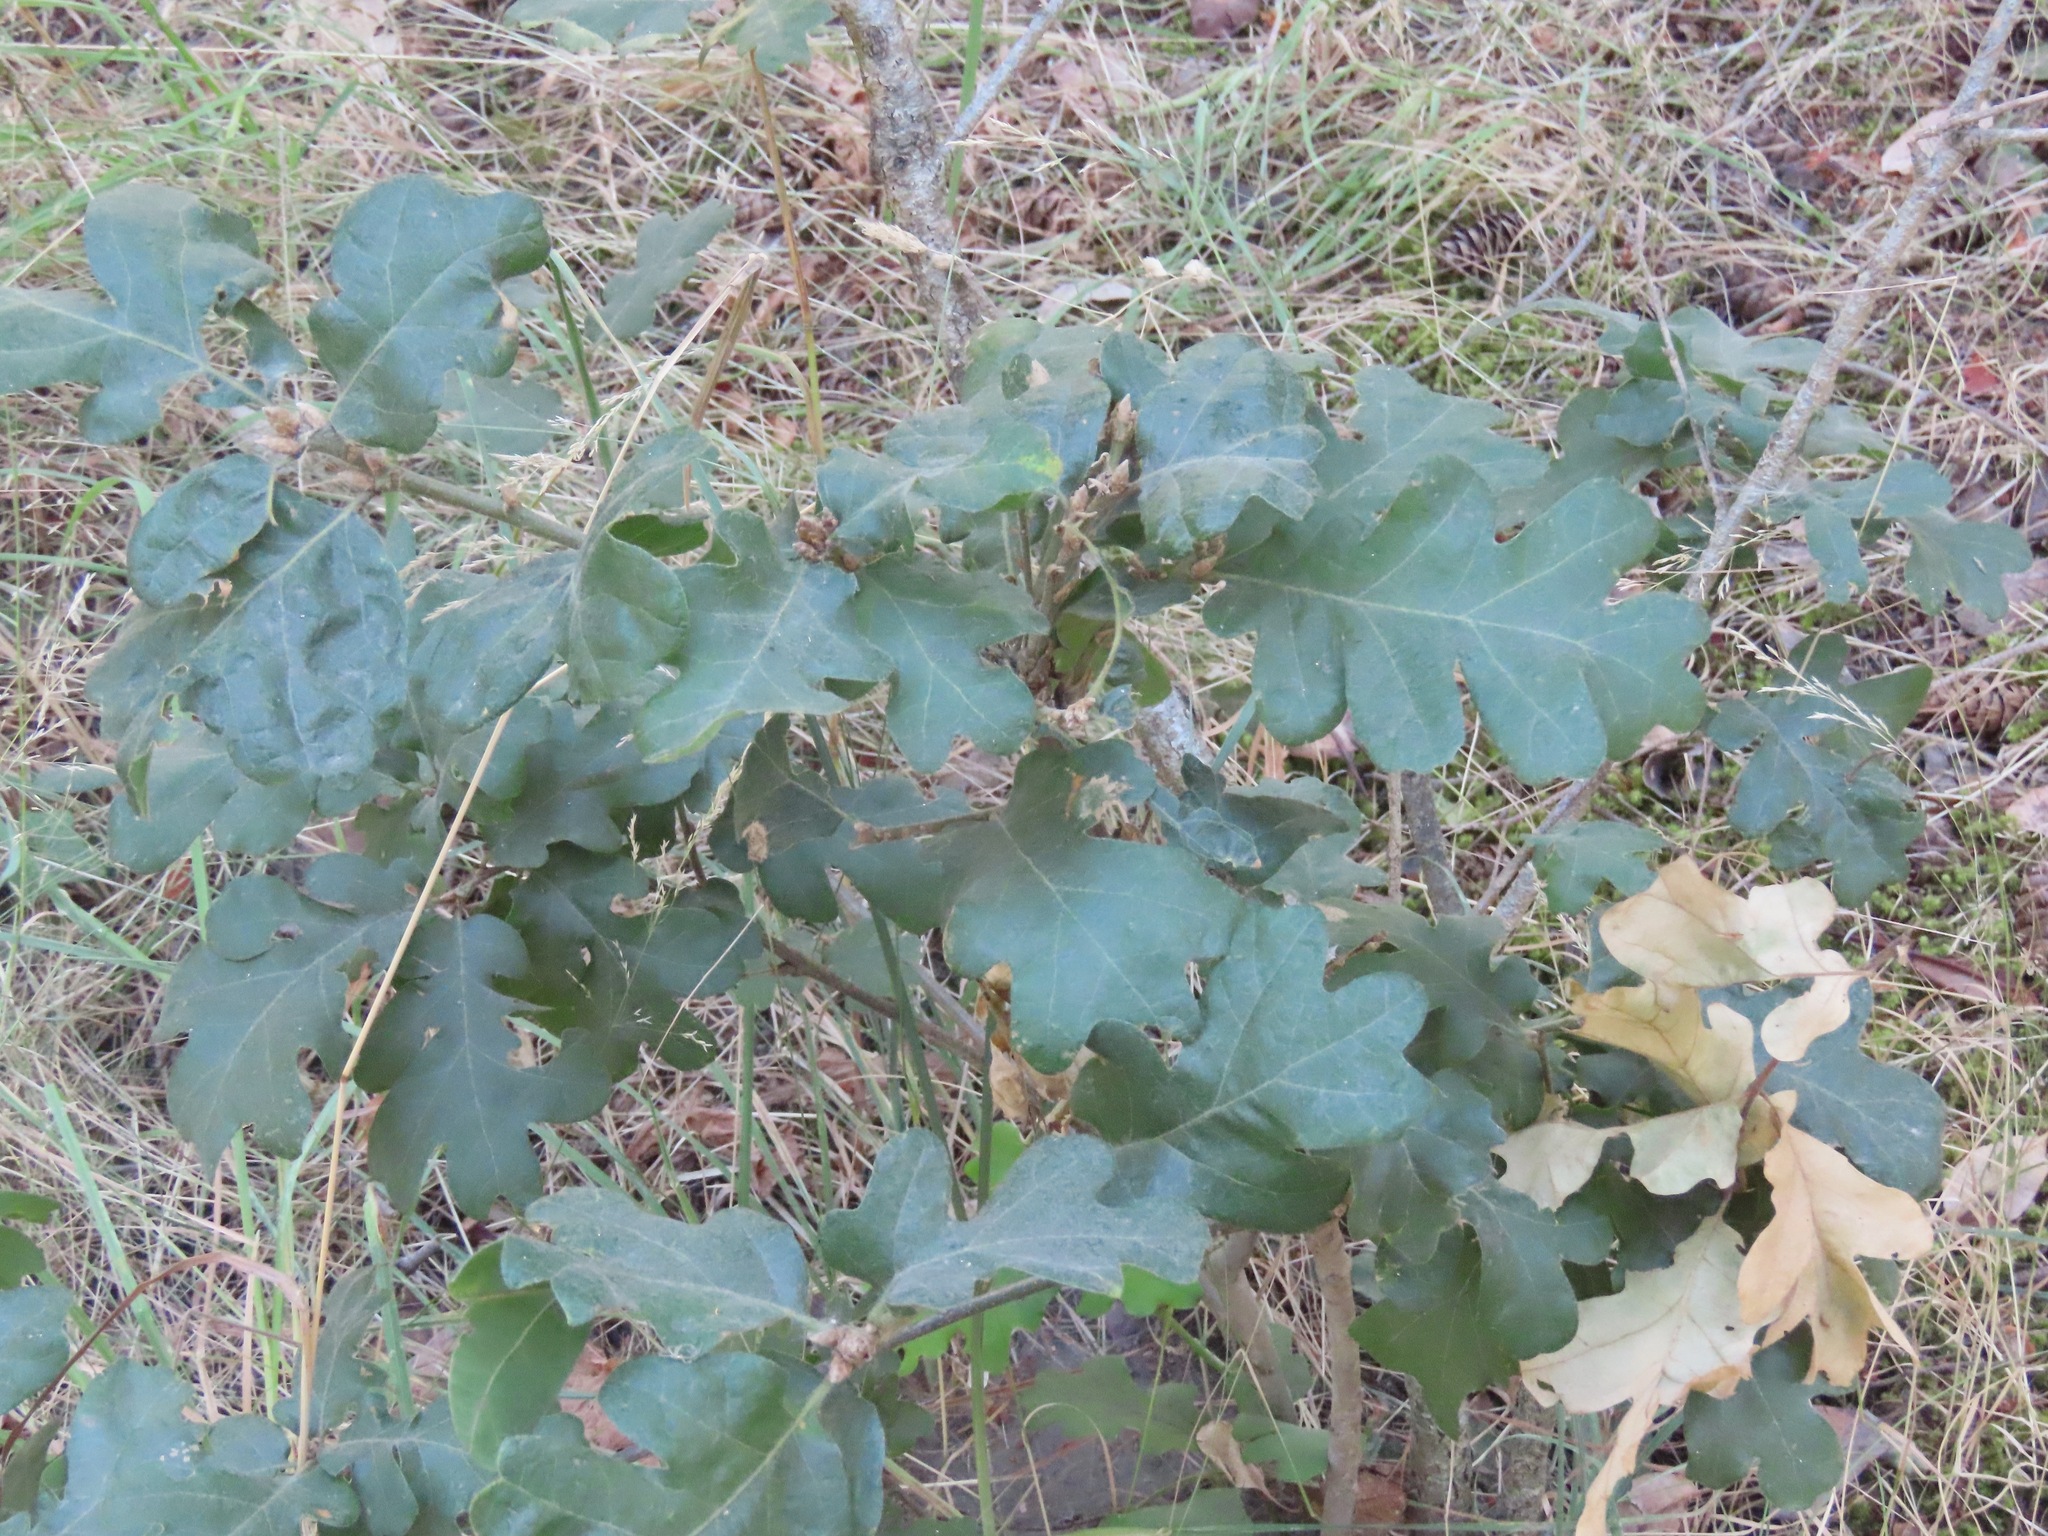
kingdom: Plantae
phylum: Tracheophyta
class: Magnoliopsida
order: Fagales
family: Fagaceae
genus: Quercus
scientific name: Quercus garryana
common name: Garry oak
